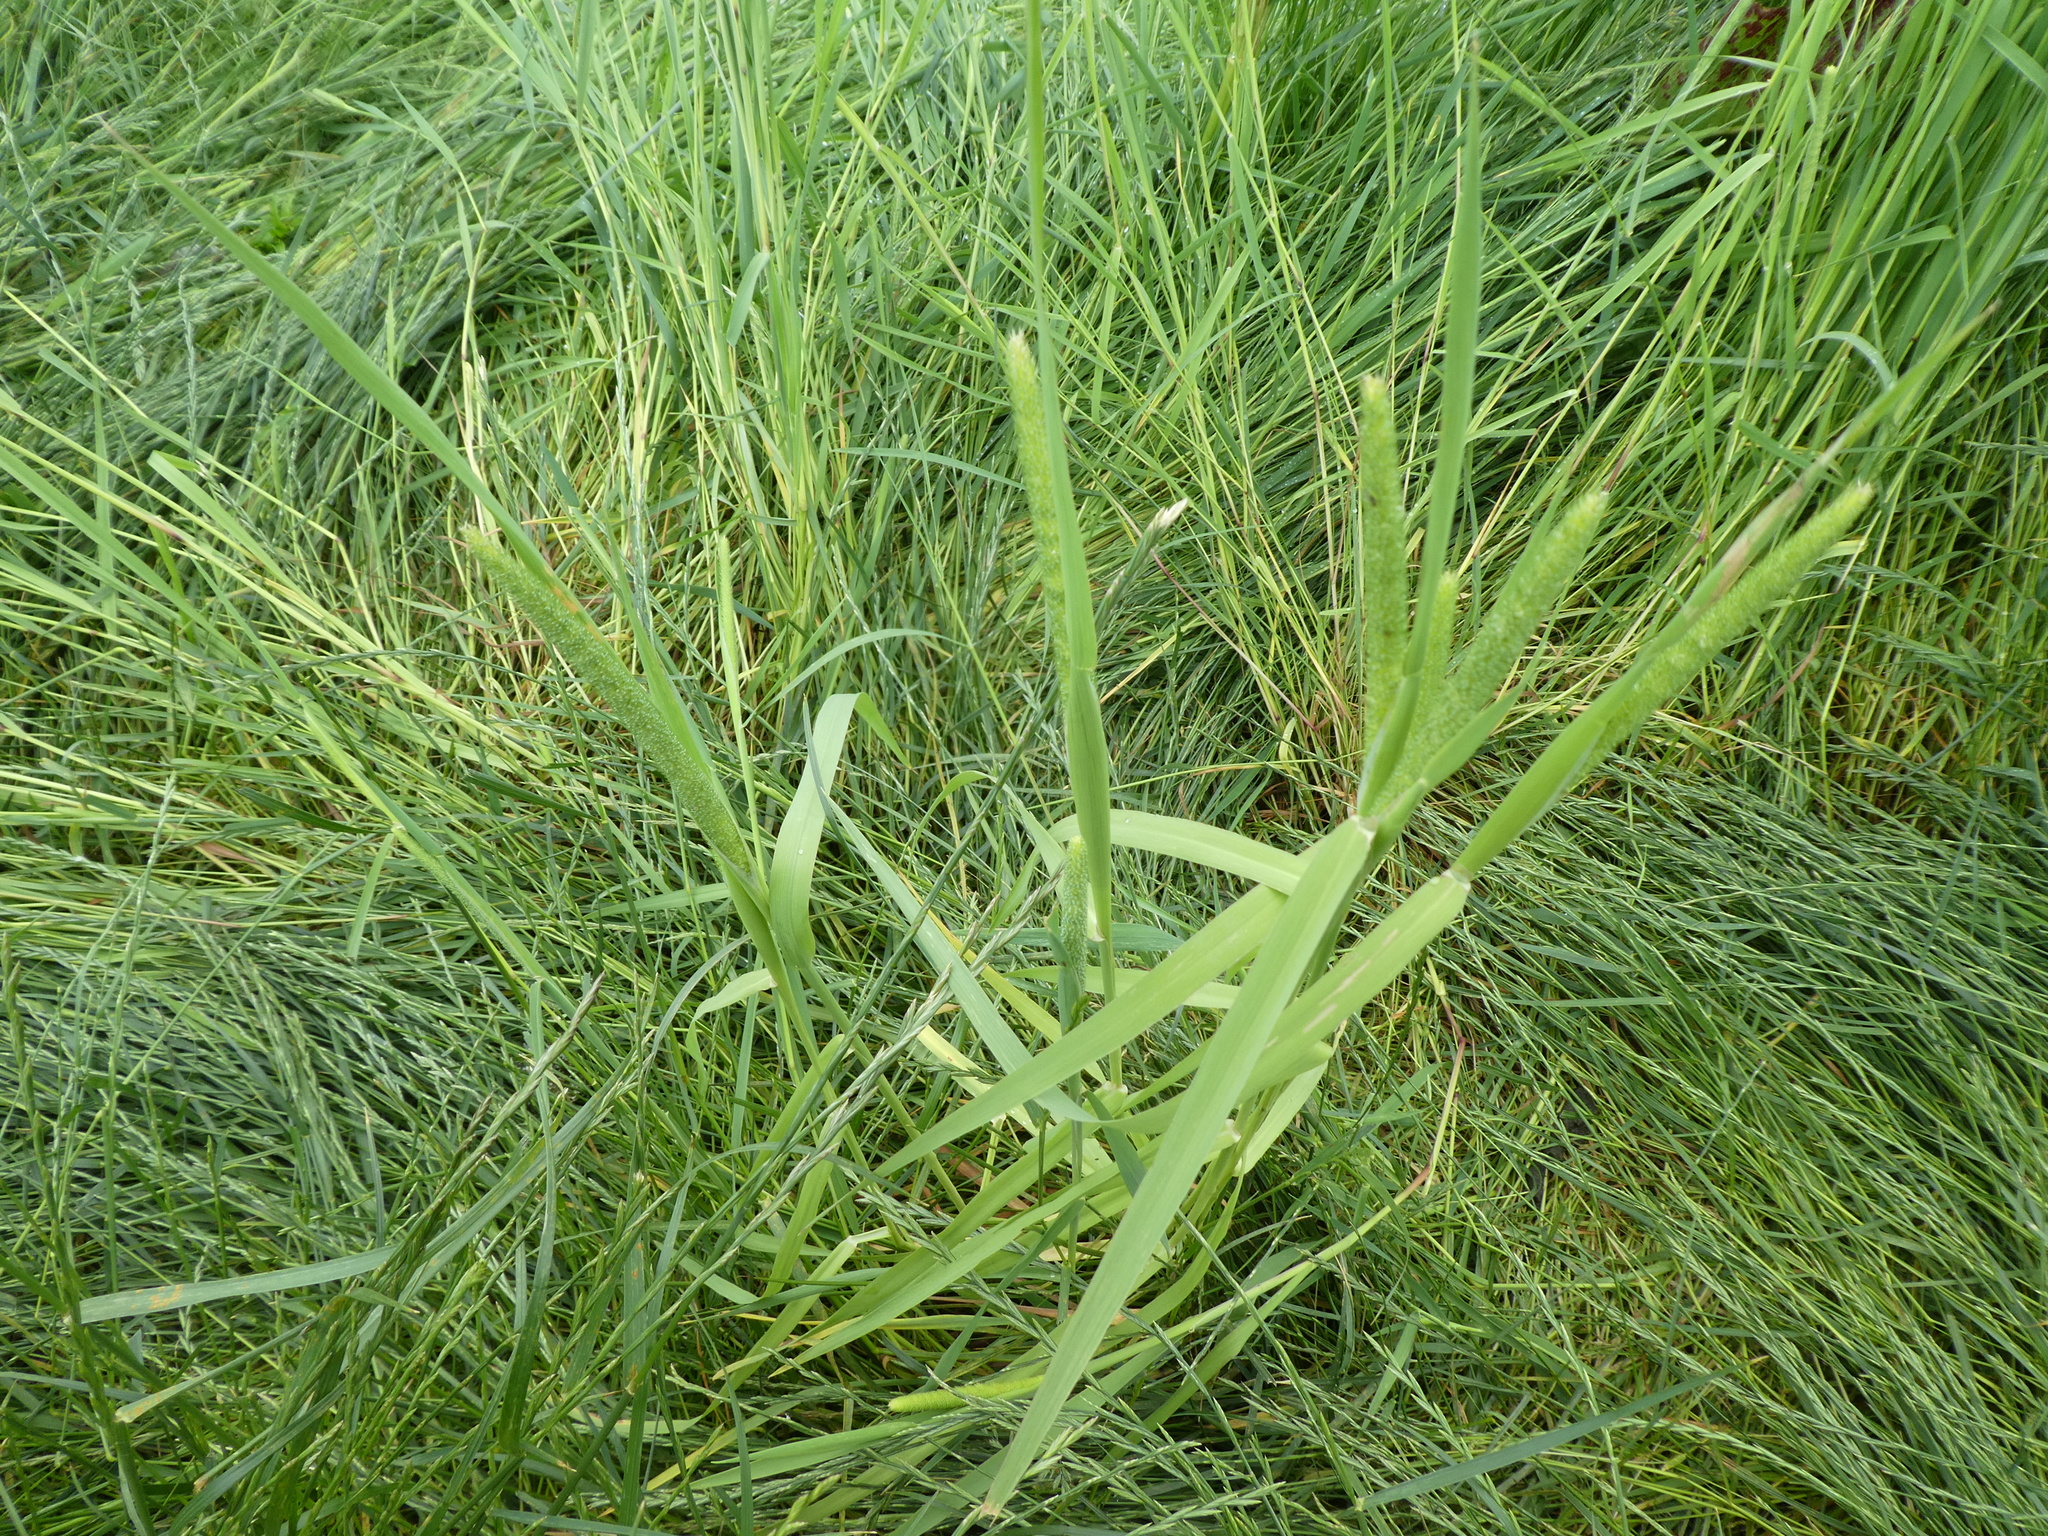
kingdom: Plantae
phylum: Tracheophyta
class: Liliopsida
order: Poales
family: Poaceae
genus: Phleum
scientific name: Phleum pratense
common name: Timothy grass
